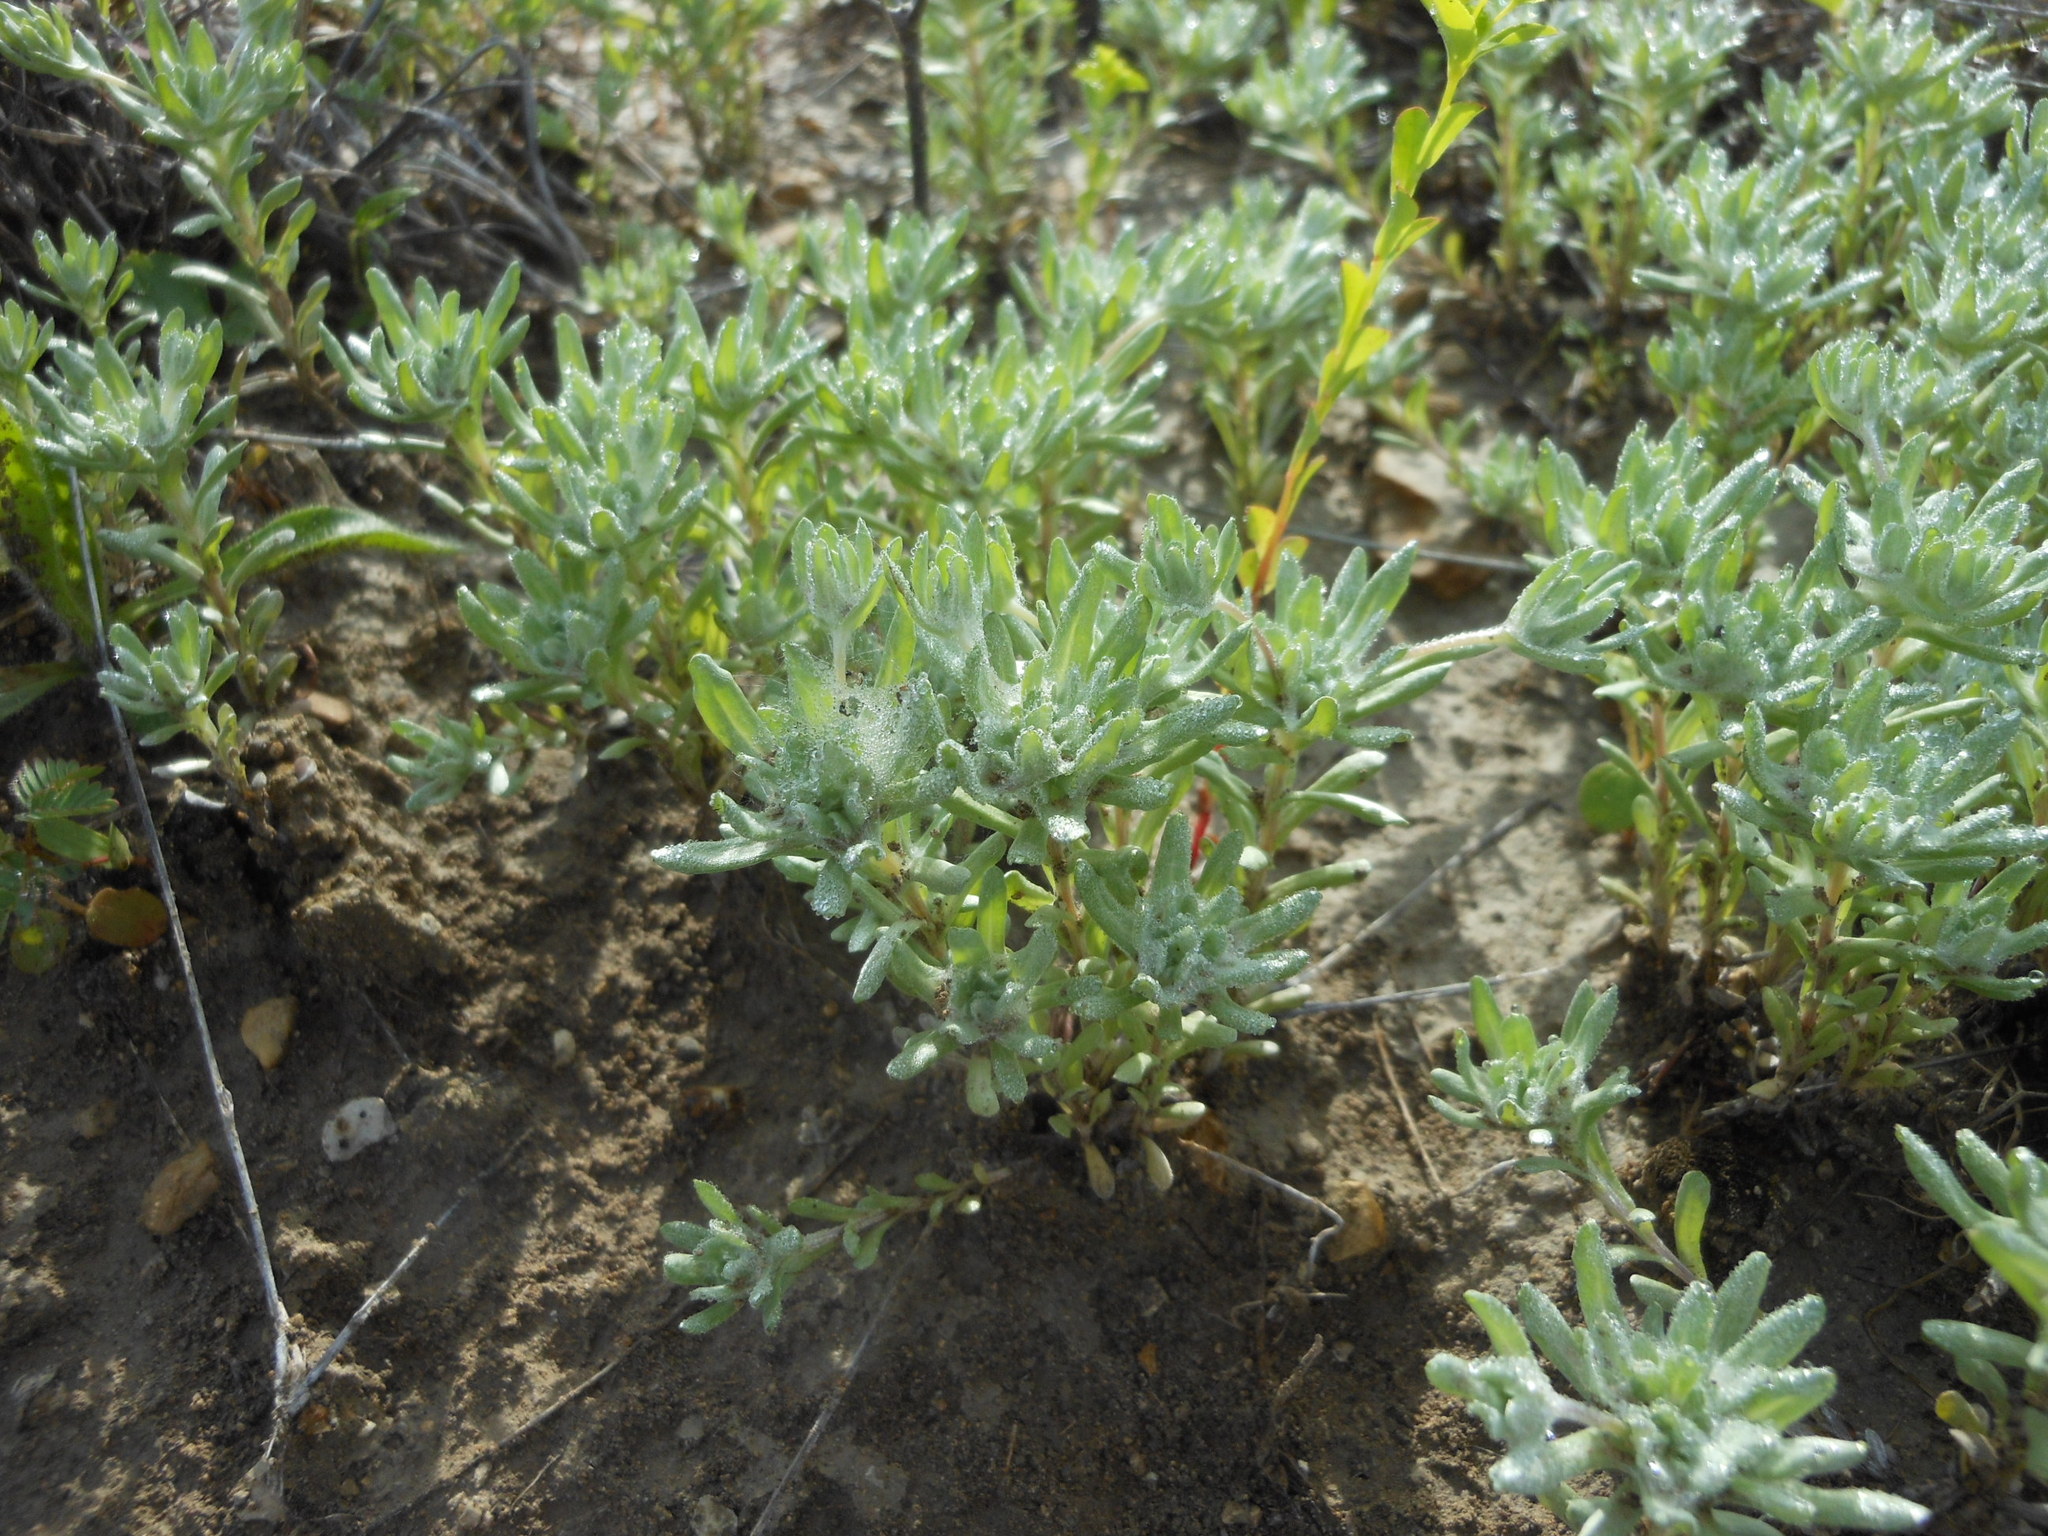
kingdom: Plantae
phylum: Tracheophyta
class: Magnoliopsida
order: Asterales
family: Asteraceae
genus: Diaperia
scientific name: Diaperia prolifera
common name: Big-head rabbit-tobacco
